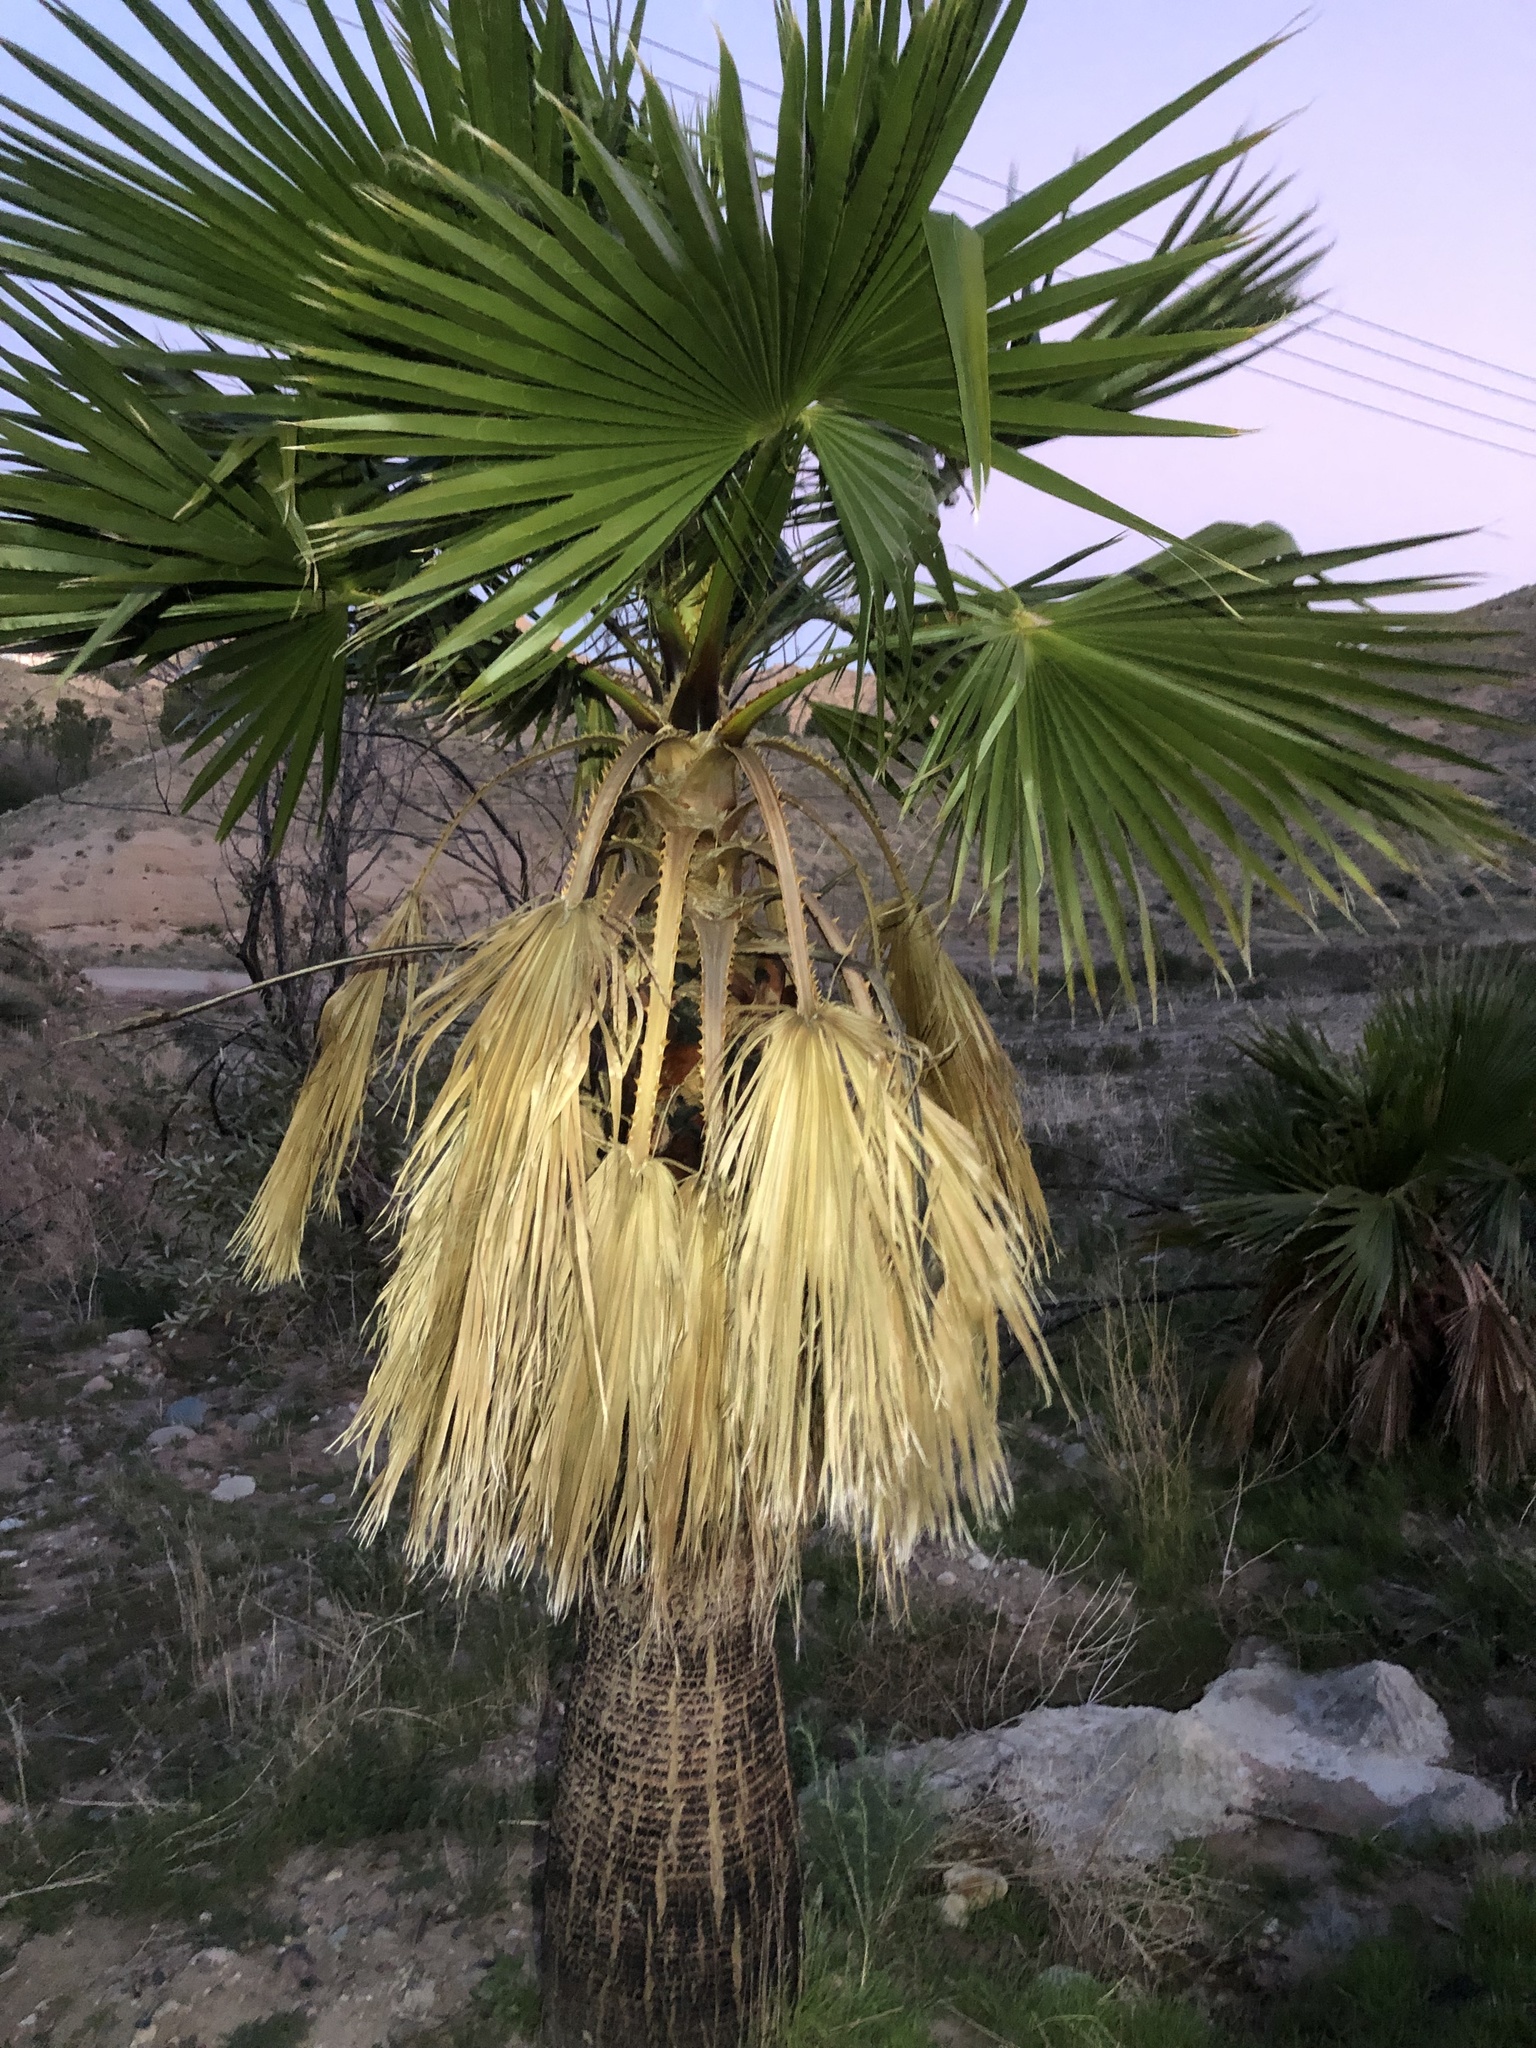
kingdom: Plantae
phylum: Tracheophyta
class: Liliopsida
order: Arecales
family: Arecaceae
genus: Washingtonia
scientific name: Washingtonia robusta
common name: Mexican fan palm
